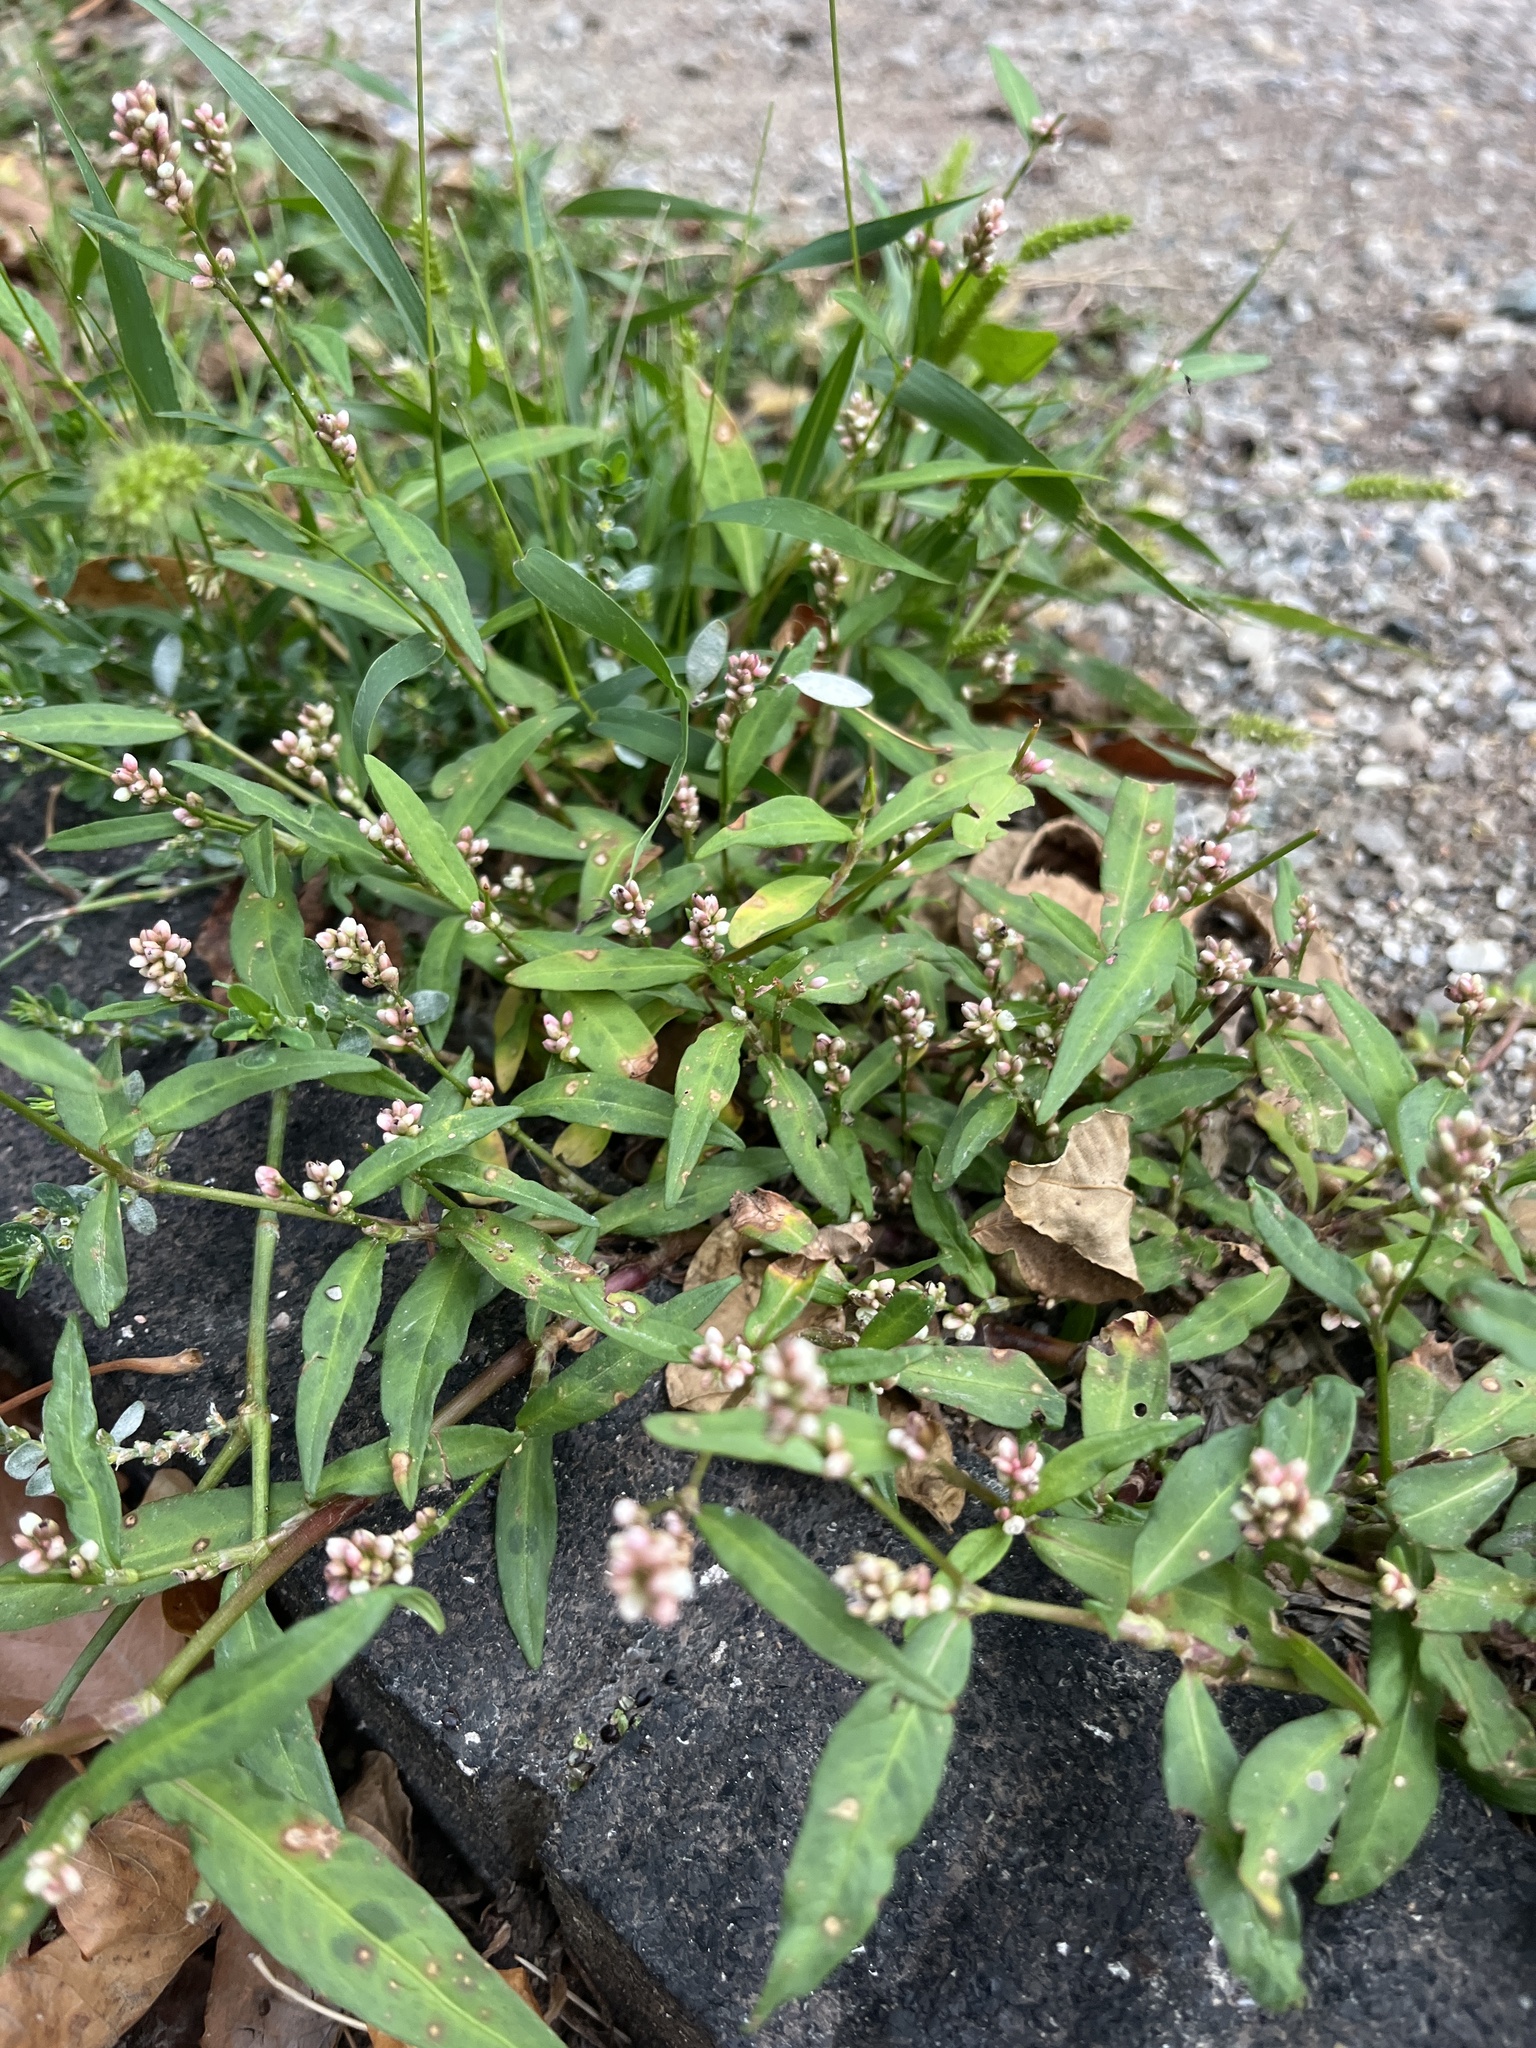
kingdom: Plantae
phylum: Tracheophyta
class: Magnoliopsida
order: Caryophyllales
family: Polygonaceae
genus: Persicaria
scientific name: Persicaria maculosa
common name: Redshank
